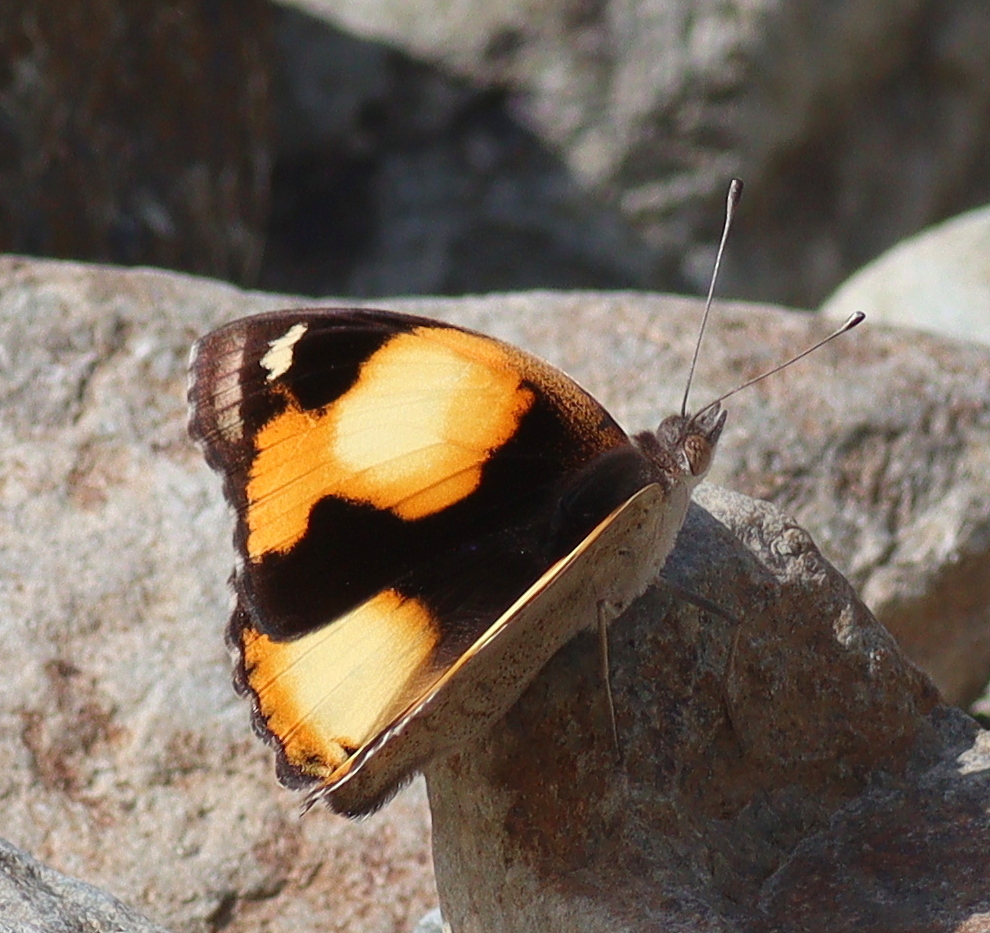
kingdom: Animalia
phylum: Arthropoda
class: Insecta
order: Lepidoptera
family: Nymphalidae
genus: Junonia
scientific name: Junonia hierta
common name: Yellow pansy
